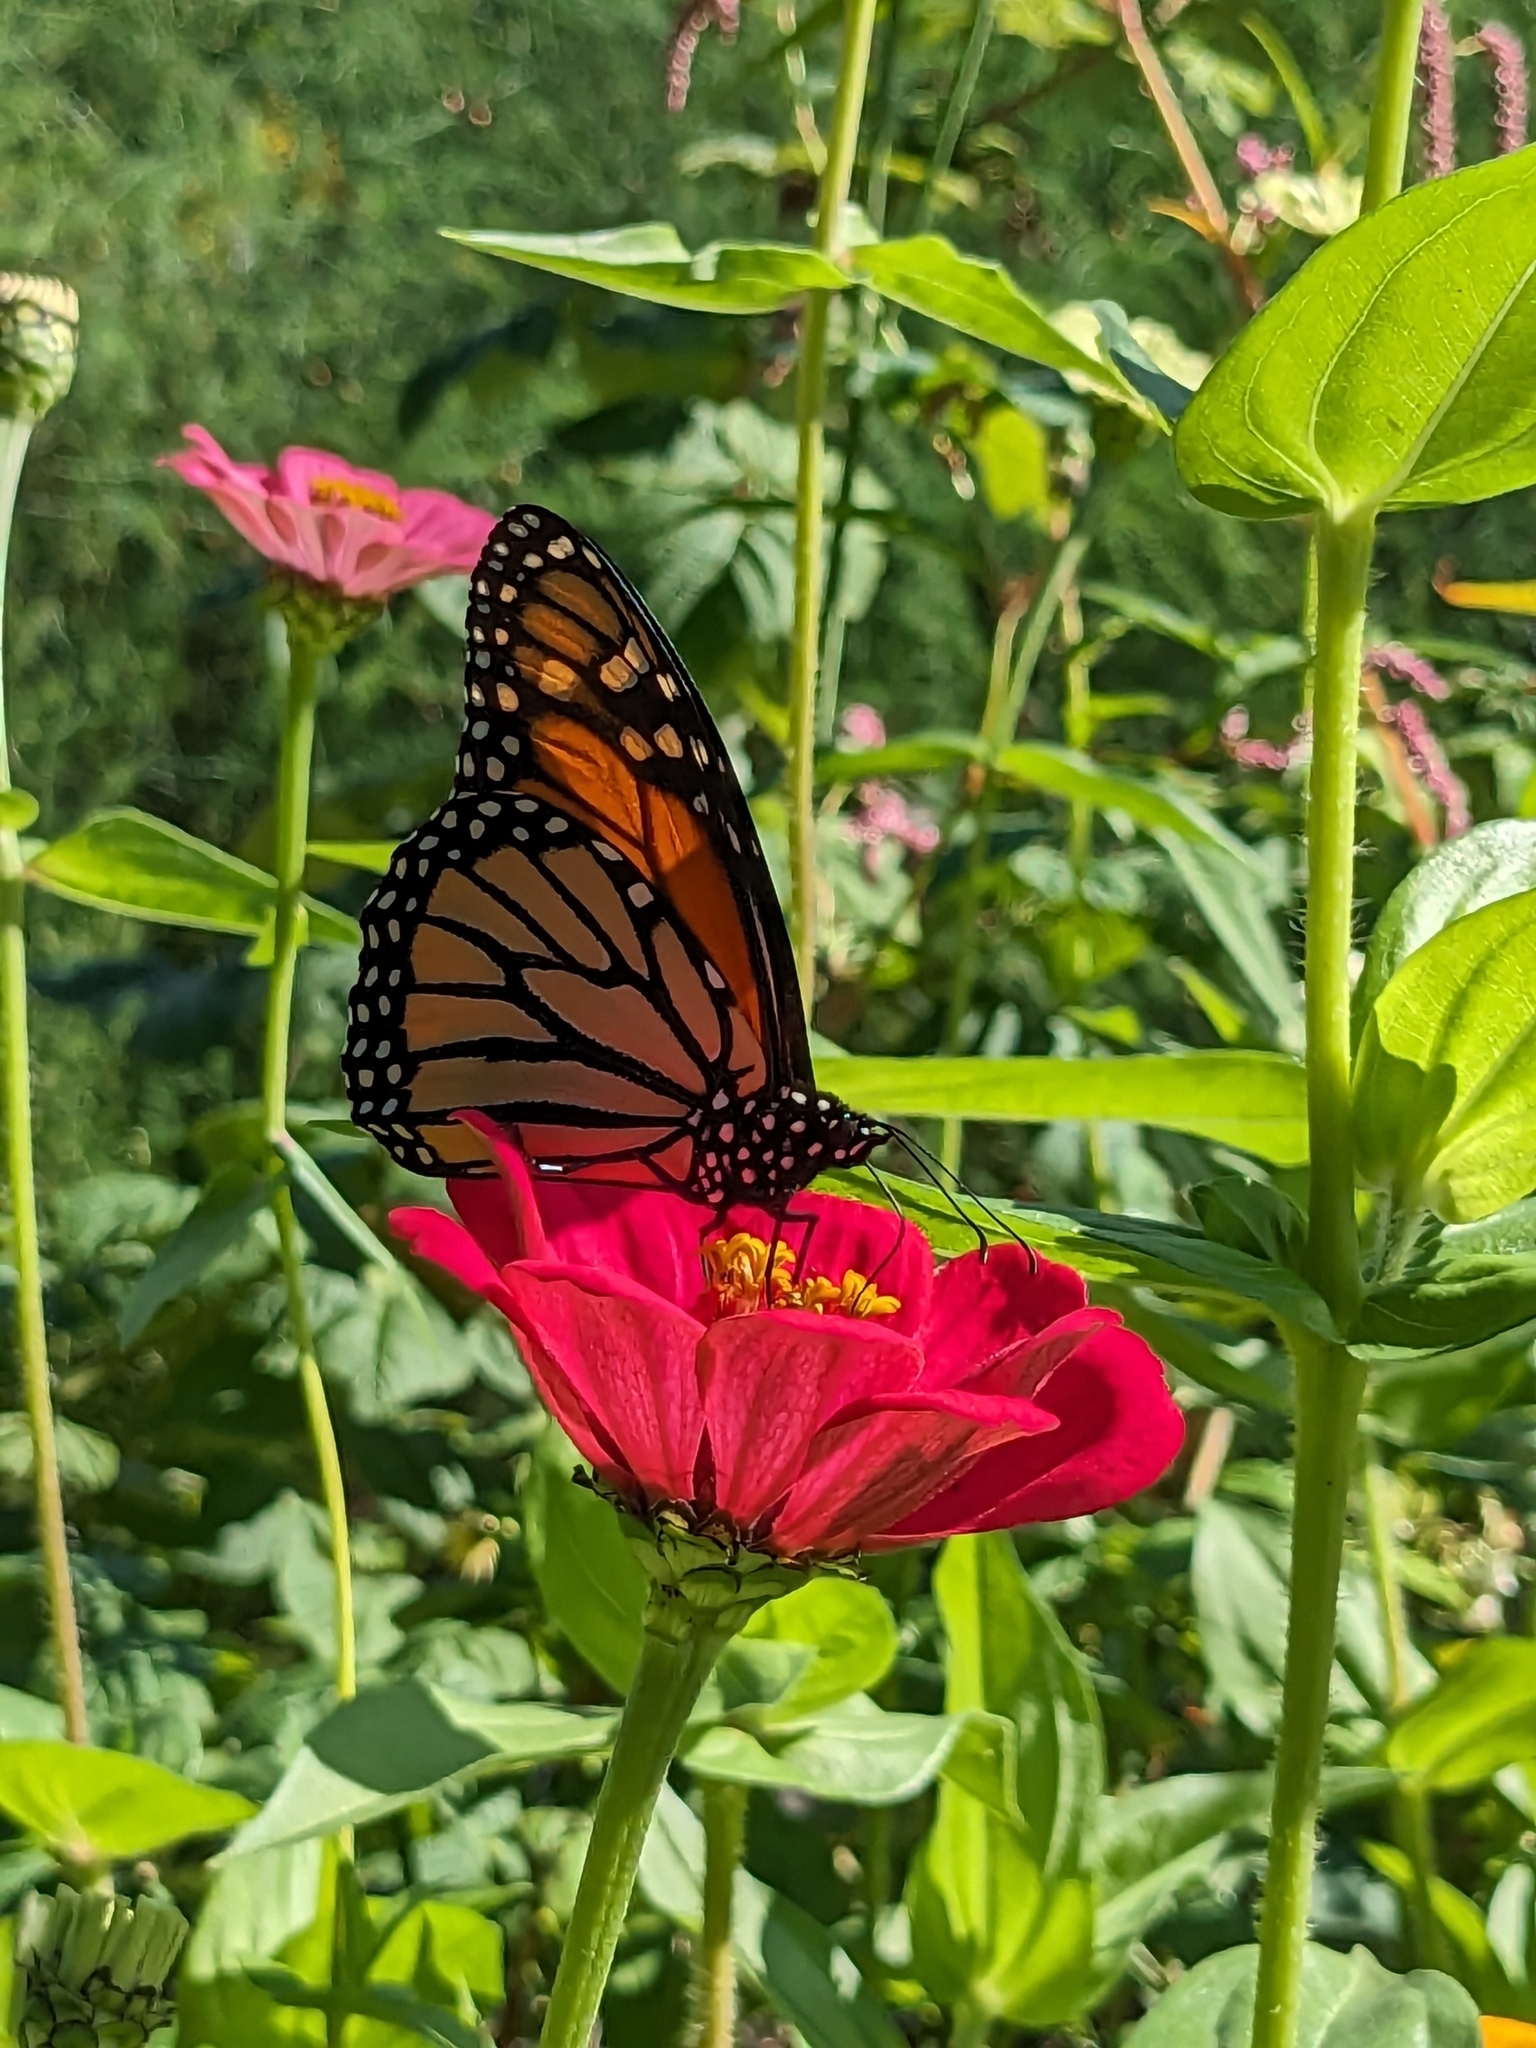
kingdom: Animalia
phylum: Arthropoda
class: Insecta
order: Lepidoptera
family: Nymphalidae
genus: Danaus
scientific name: Danaus plexippus
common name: Monarch
